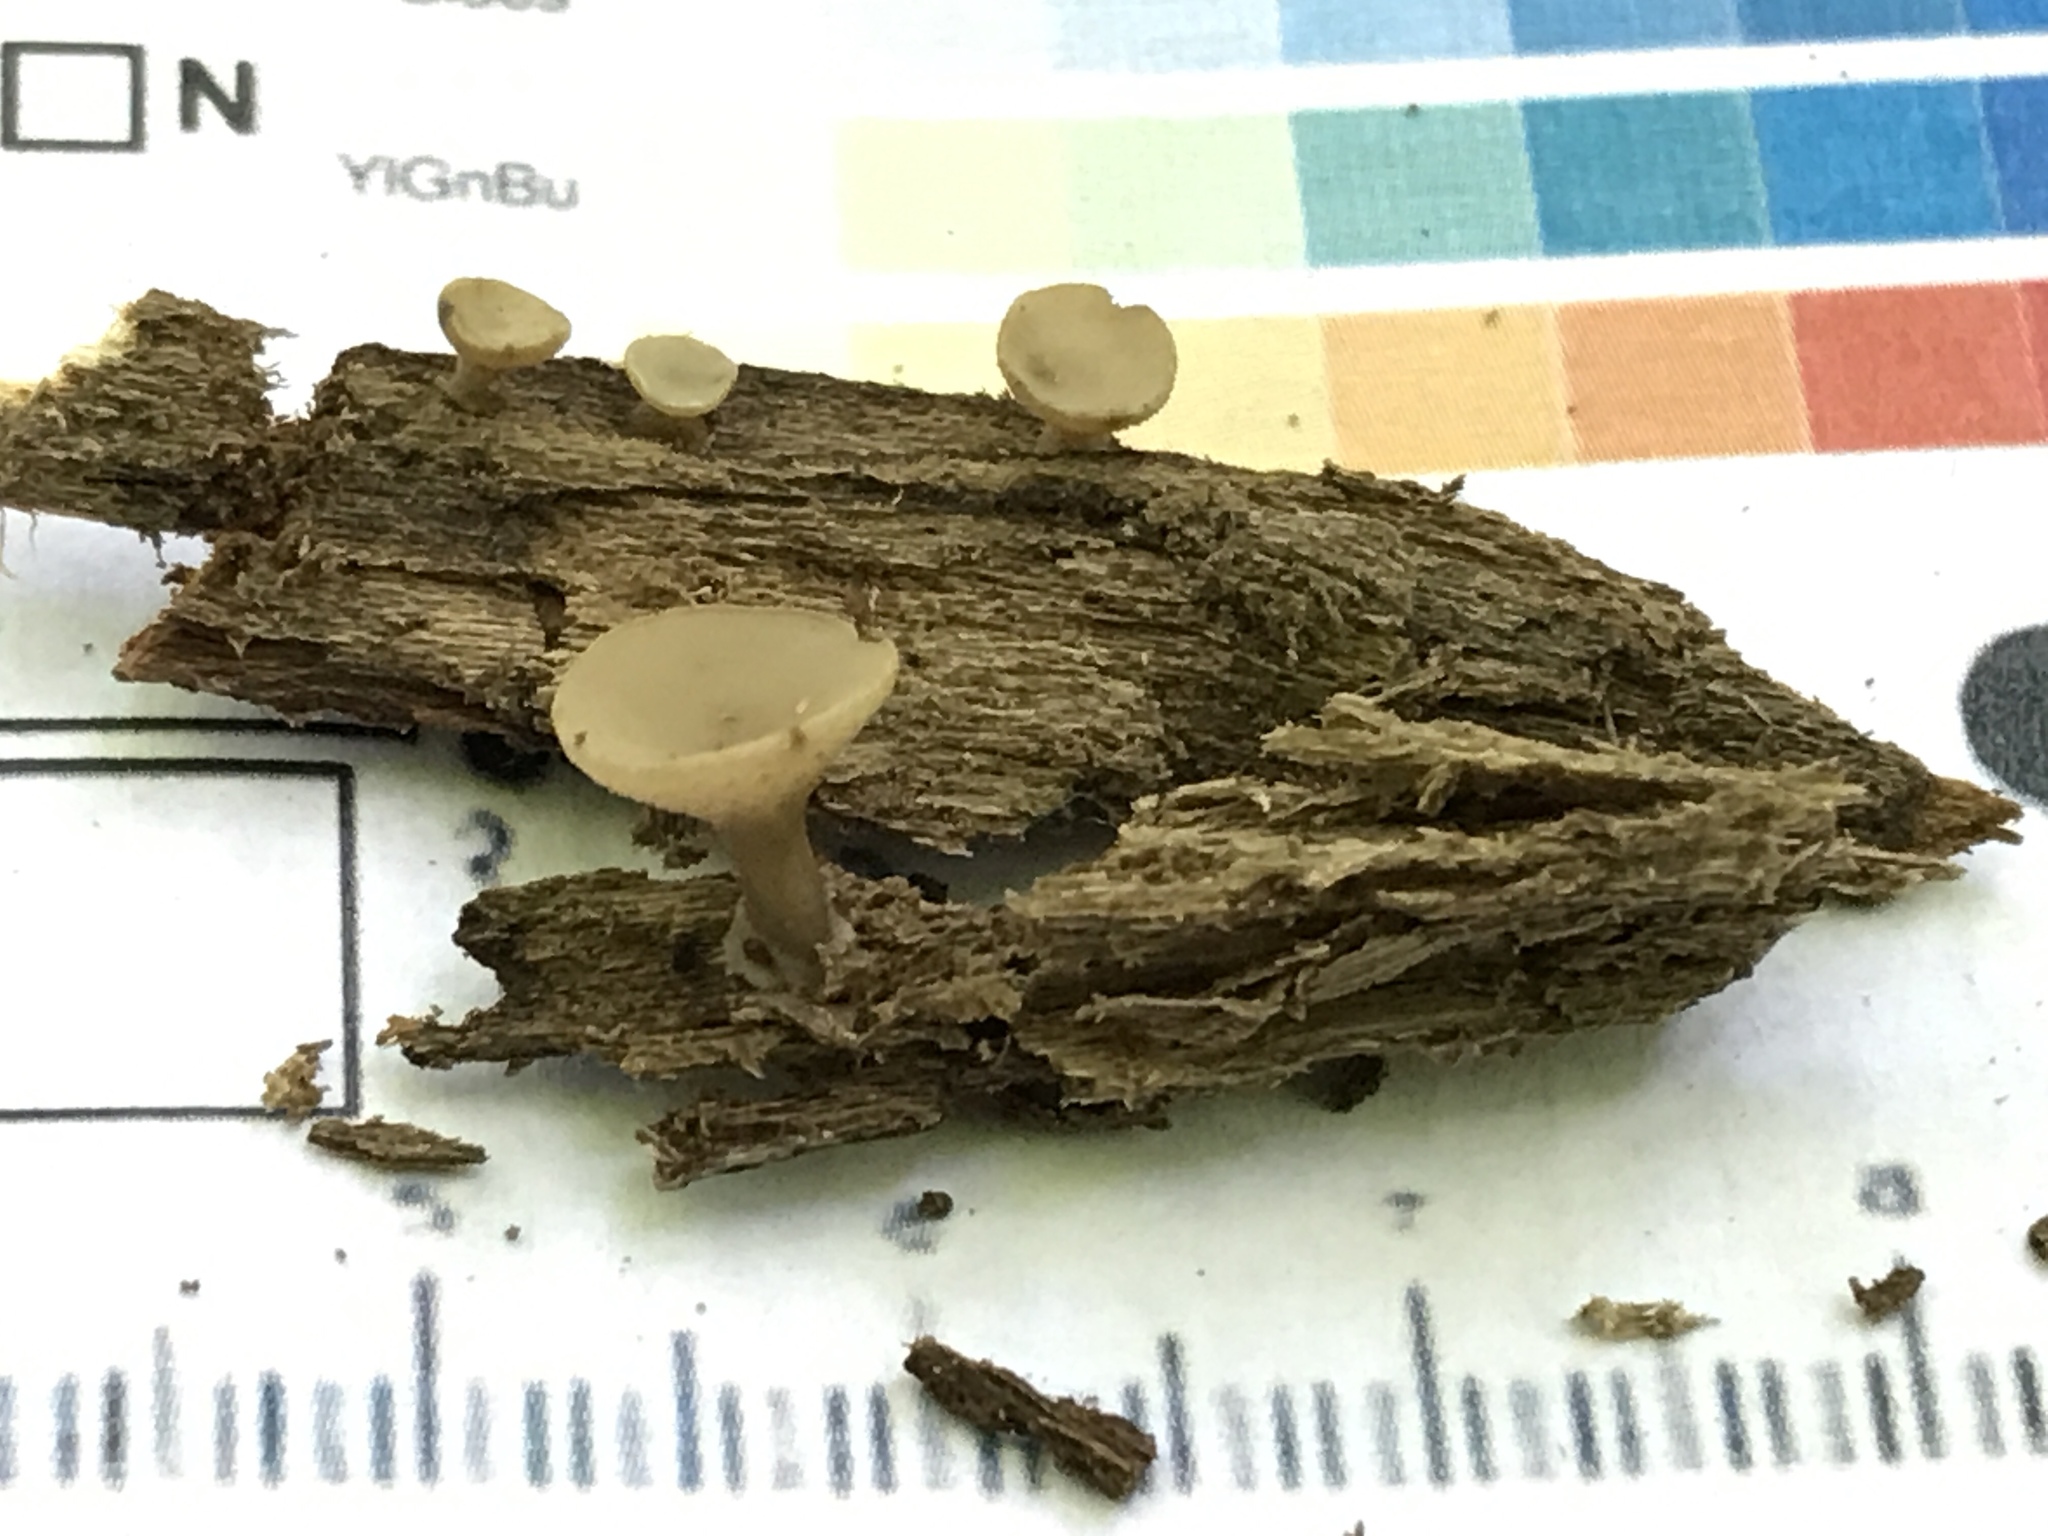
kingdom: Fungi
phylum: Ascomycota
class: Leotiomycetes
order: Helotiales
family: Helotiaceae
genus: Tatraea
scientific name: Tatraea macrospora
